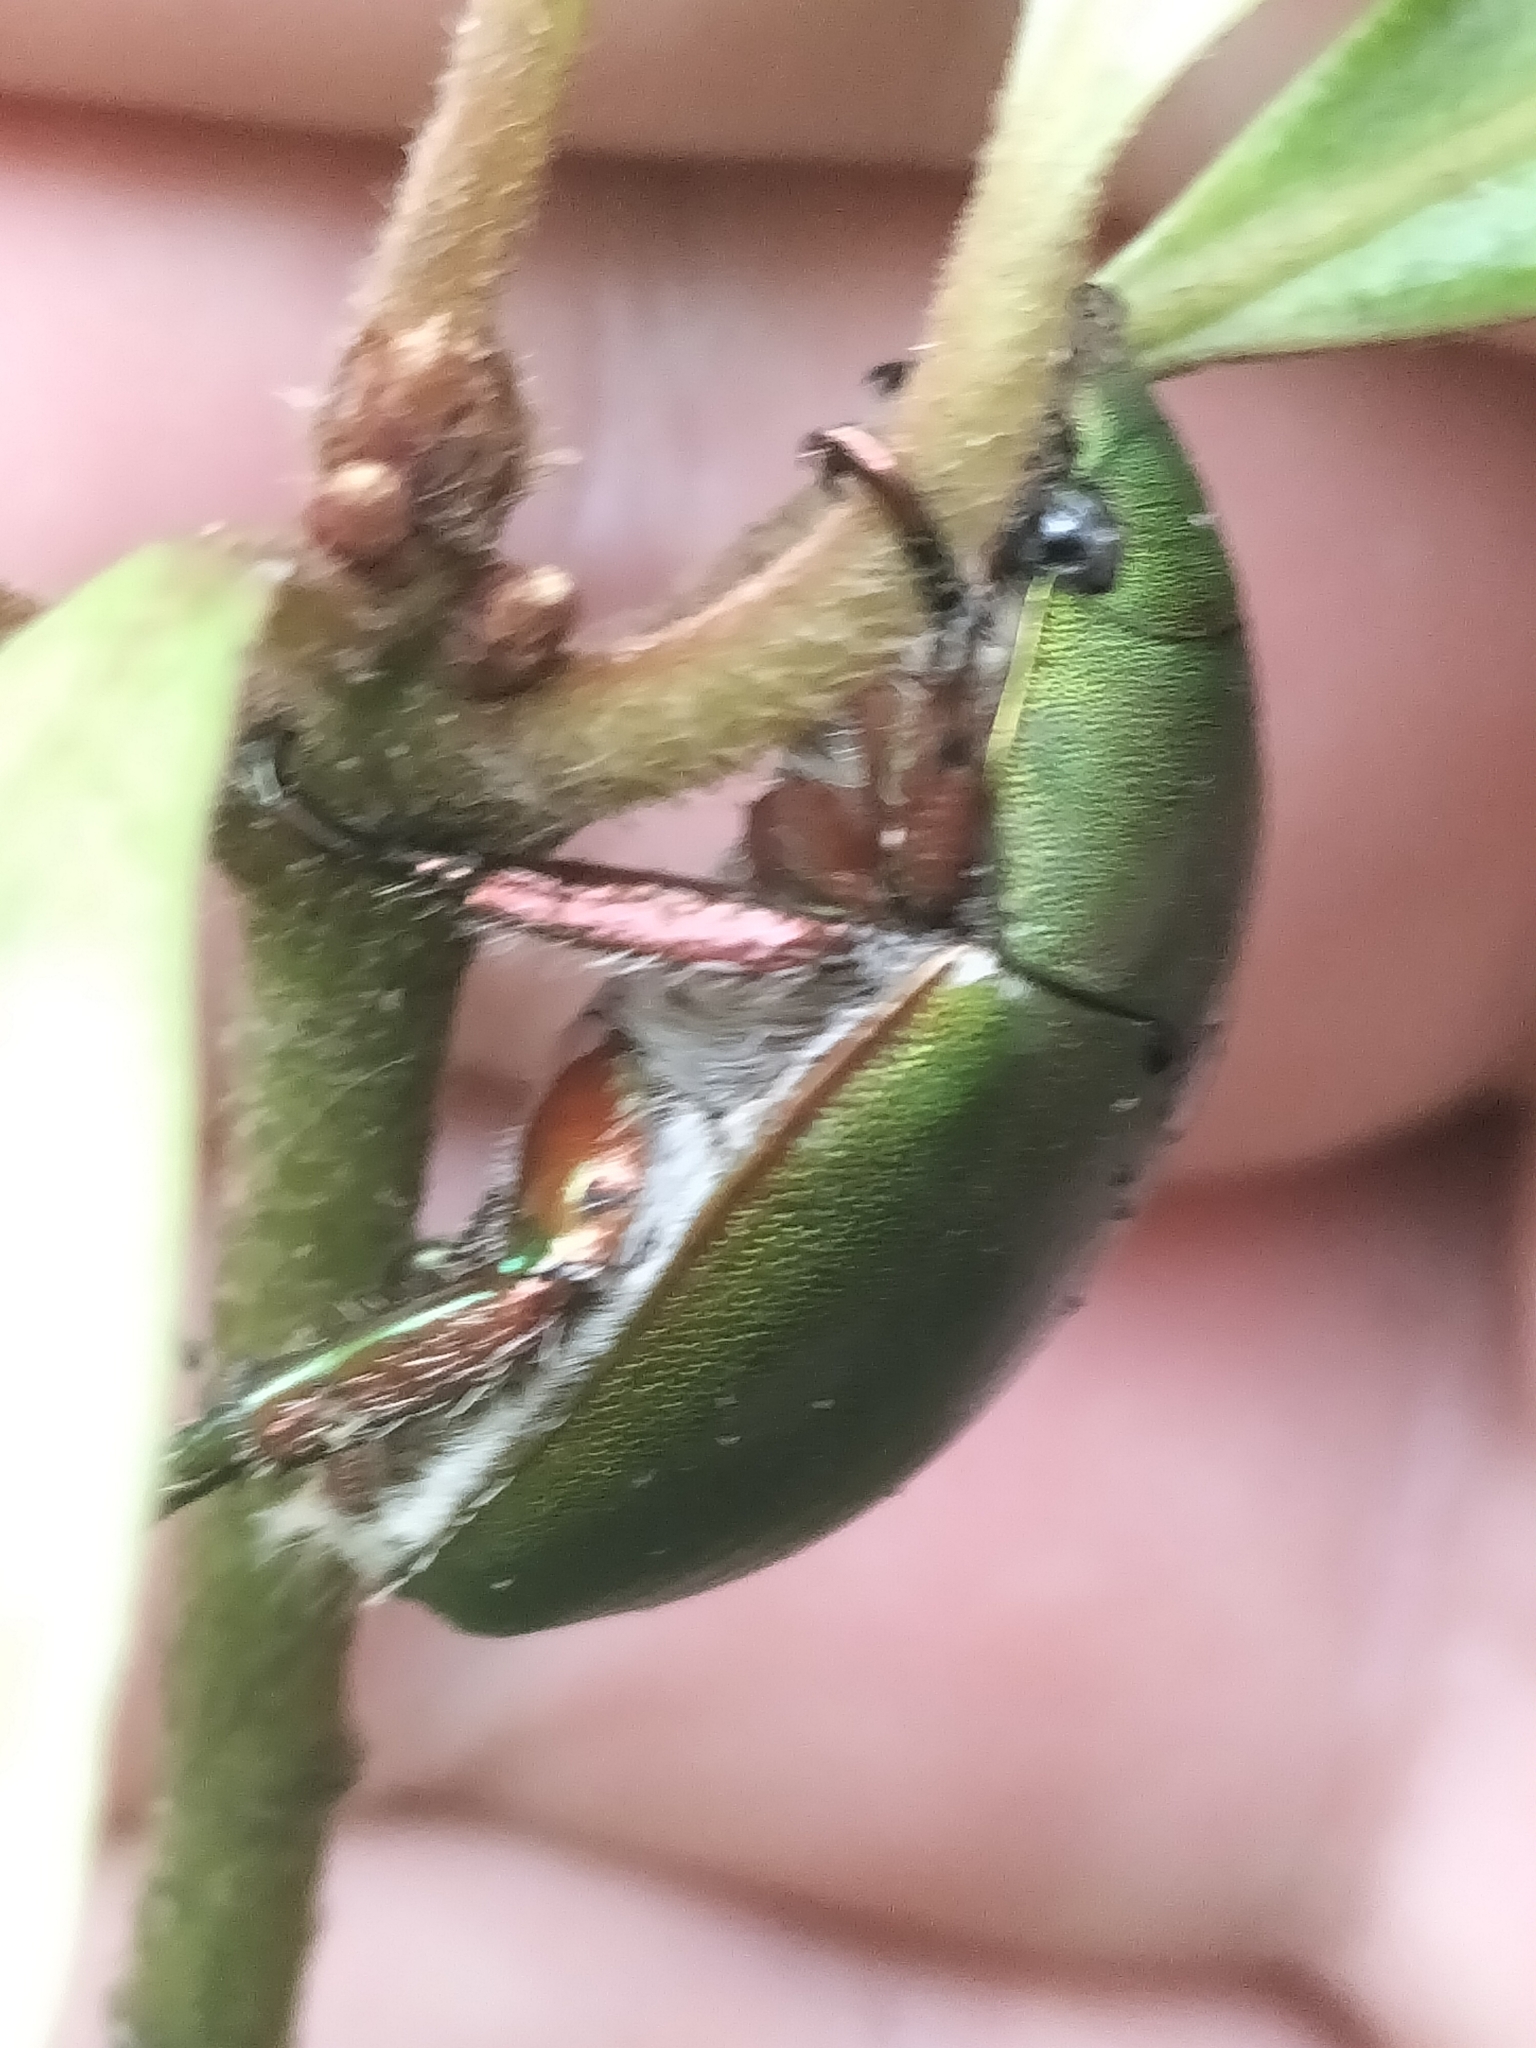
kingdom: Animalia
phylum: Arthropoda
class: Insecta
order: Coleoptera
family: Scarabaeidae
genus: Anoplognathus
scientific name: Anoplognathus punctulatus
